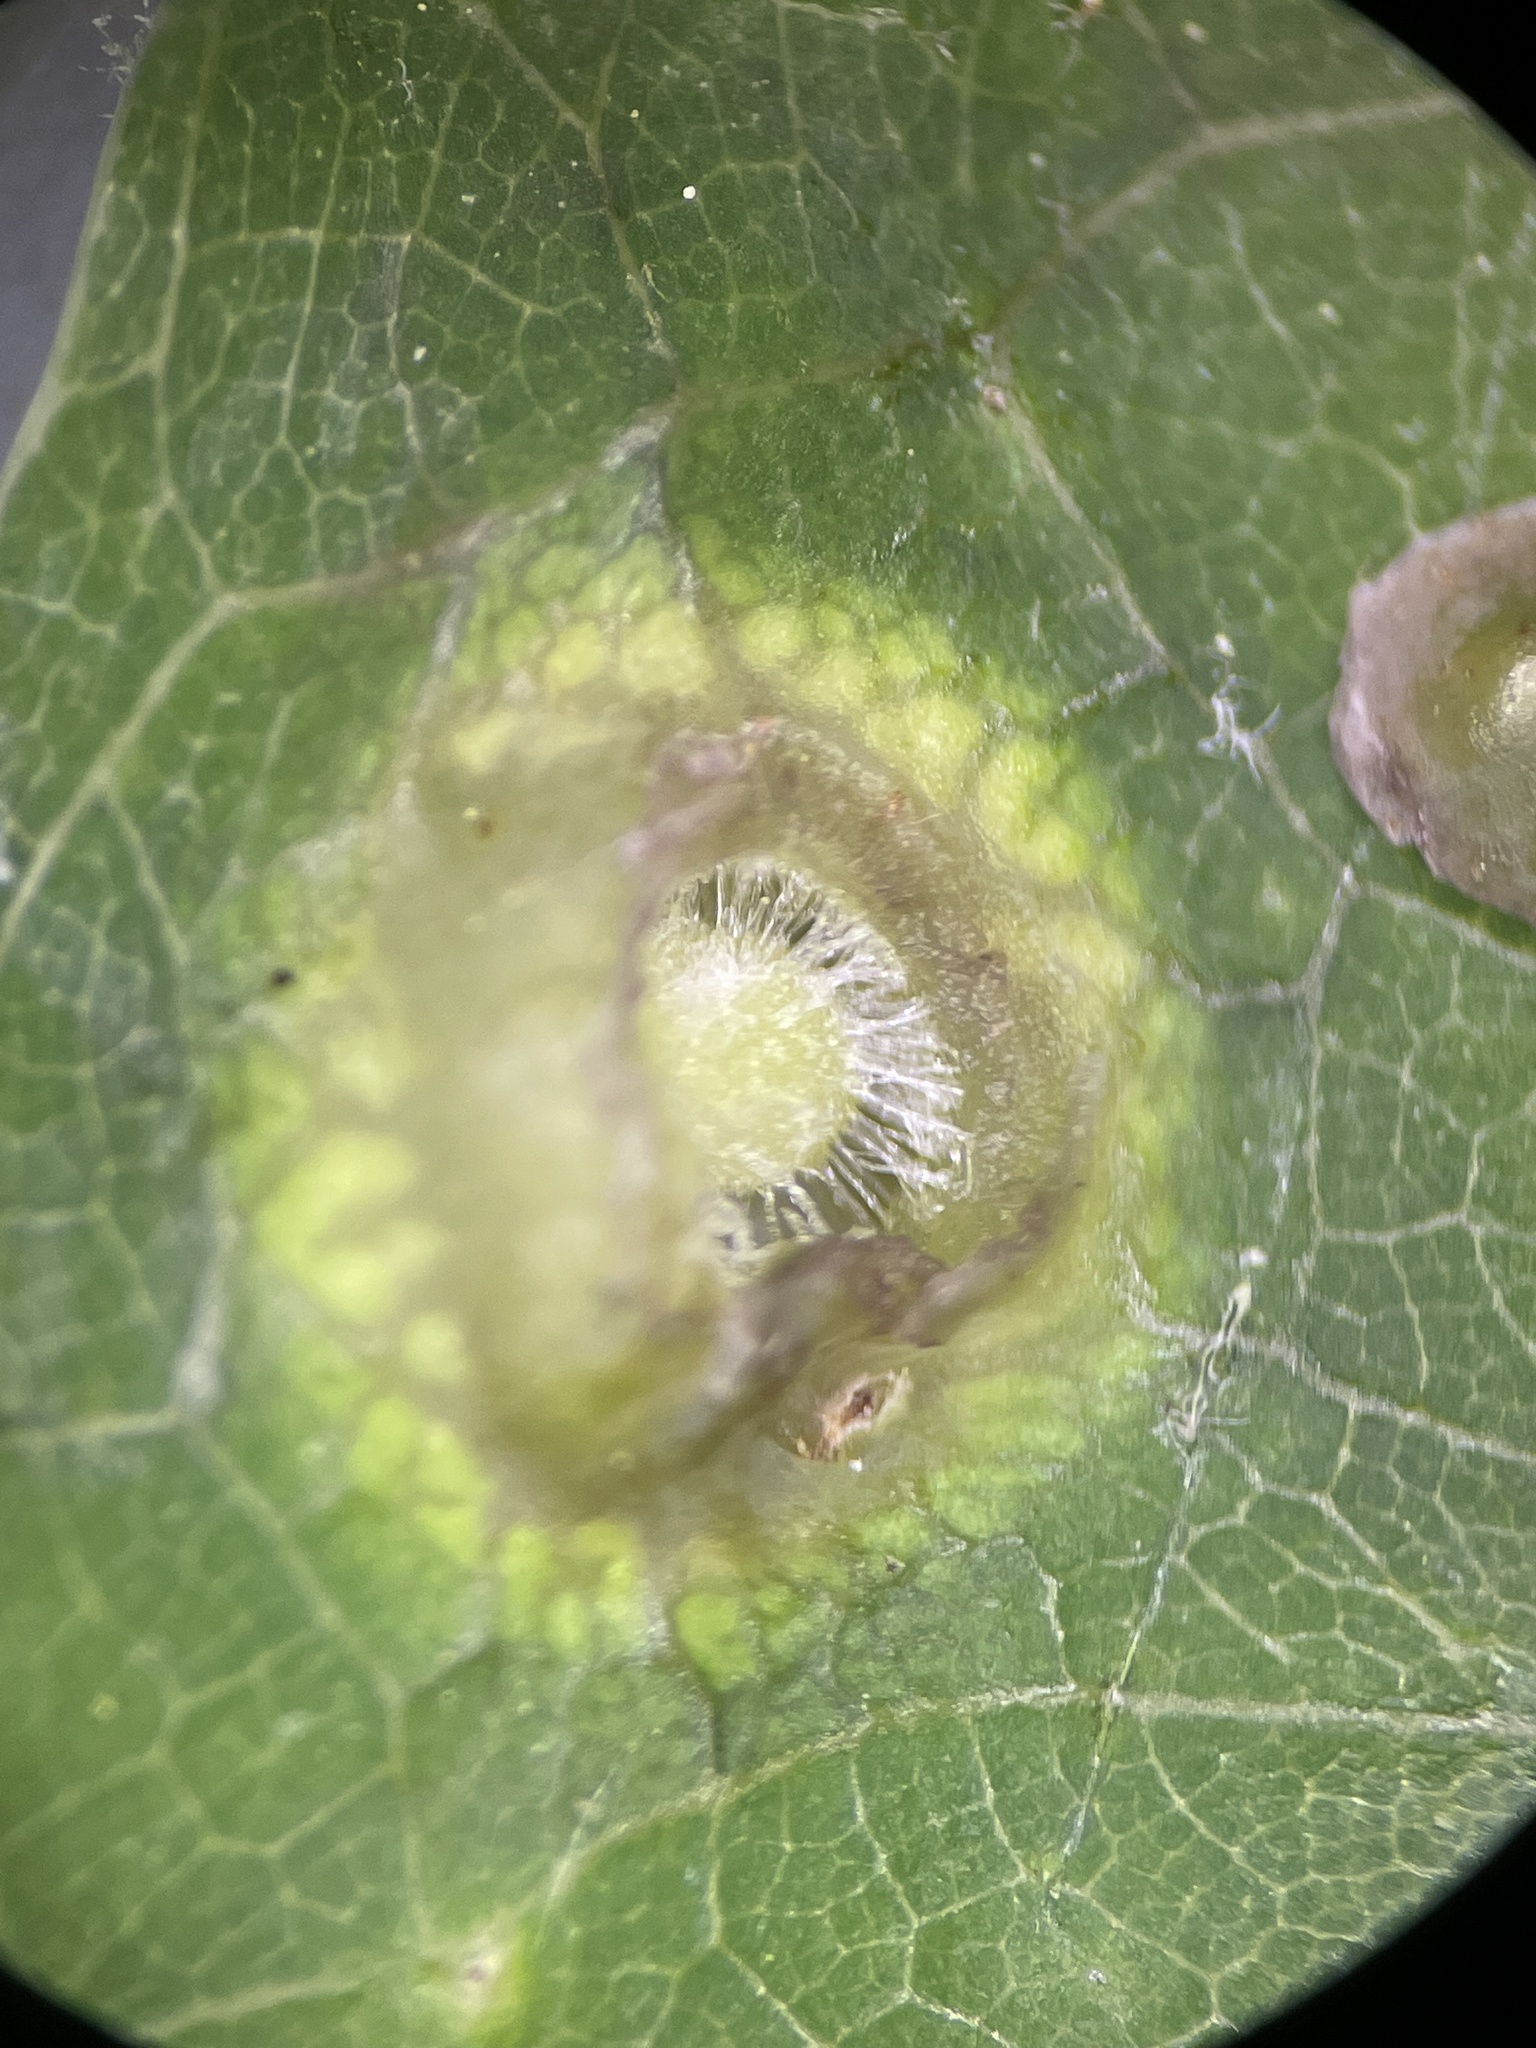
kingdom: Animalia
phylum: Arthropoda
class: Insecta
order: Hymenoptera
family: Cynipidae
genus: Callirhytis
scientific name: Callirhytis
